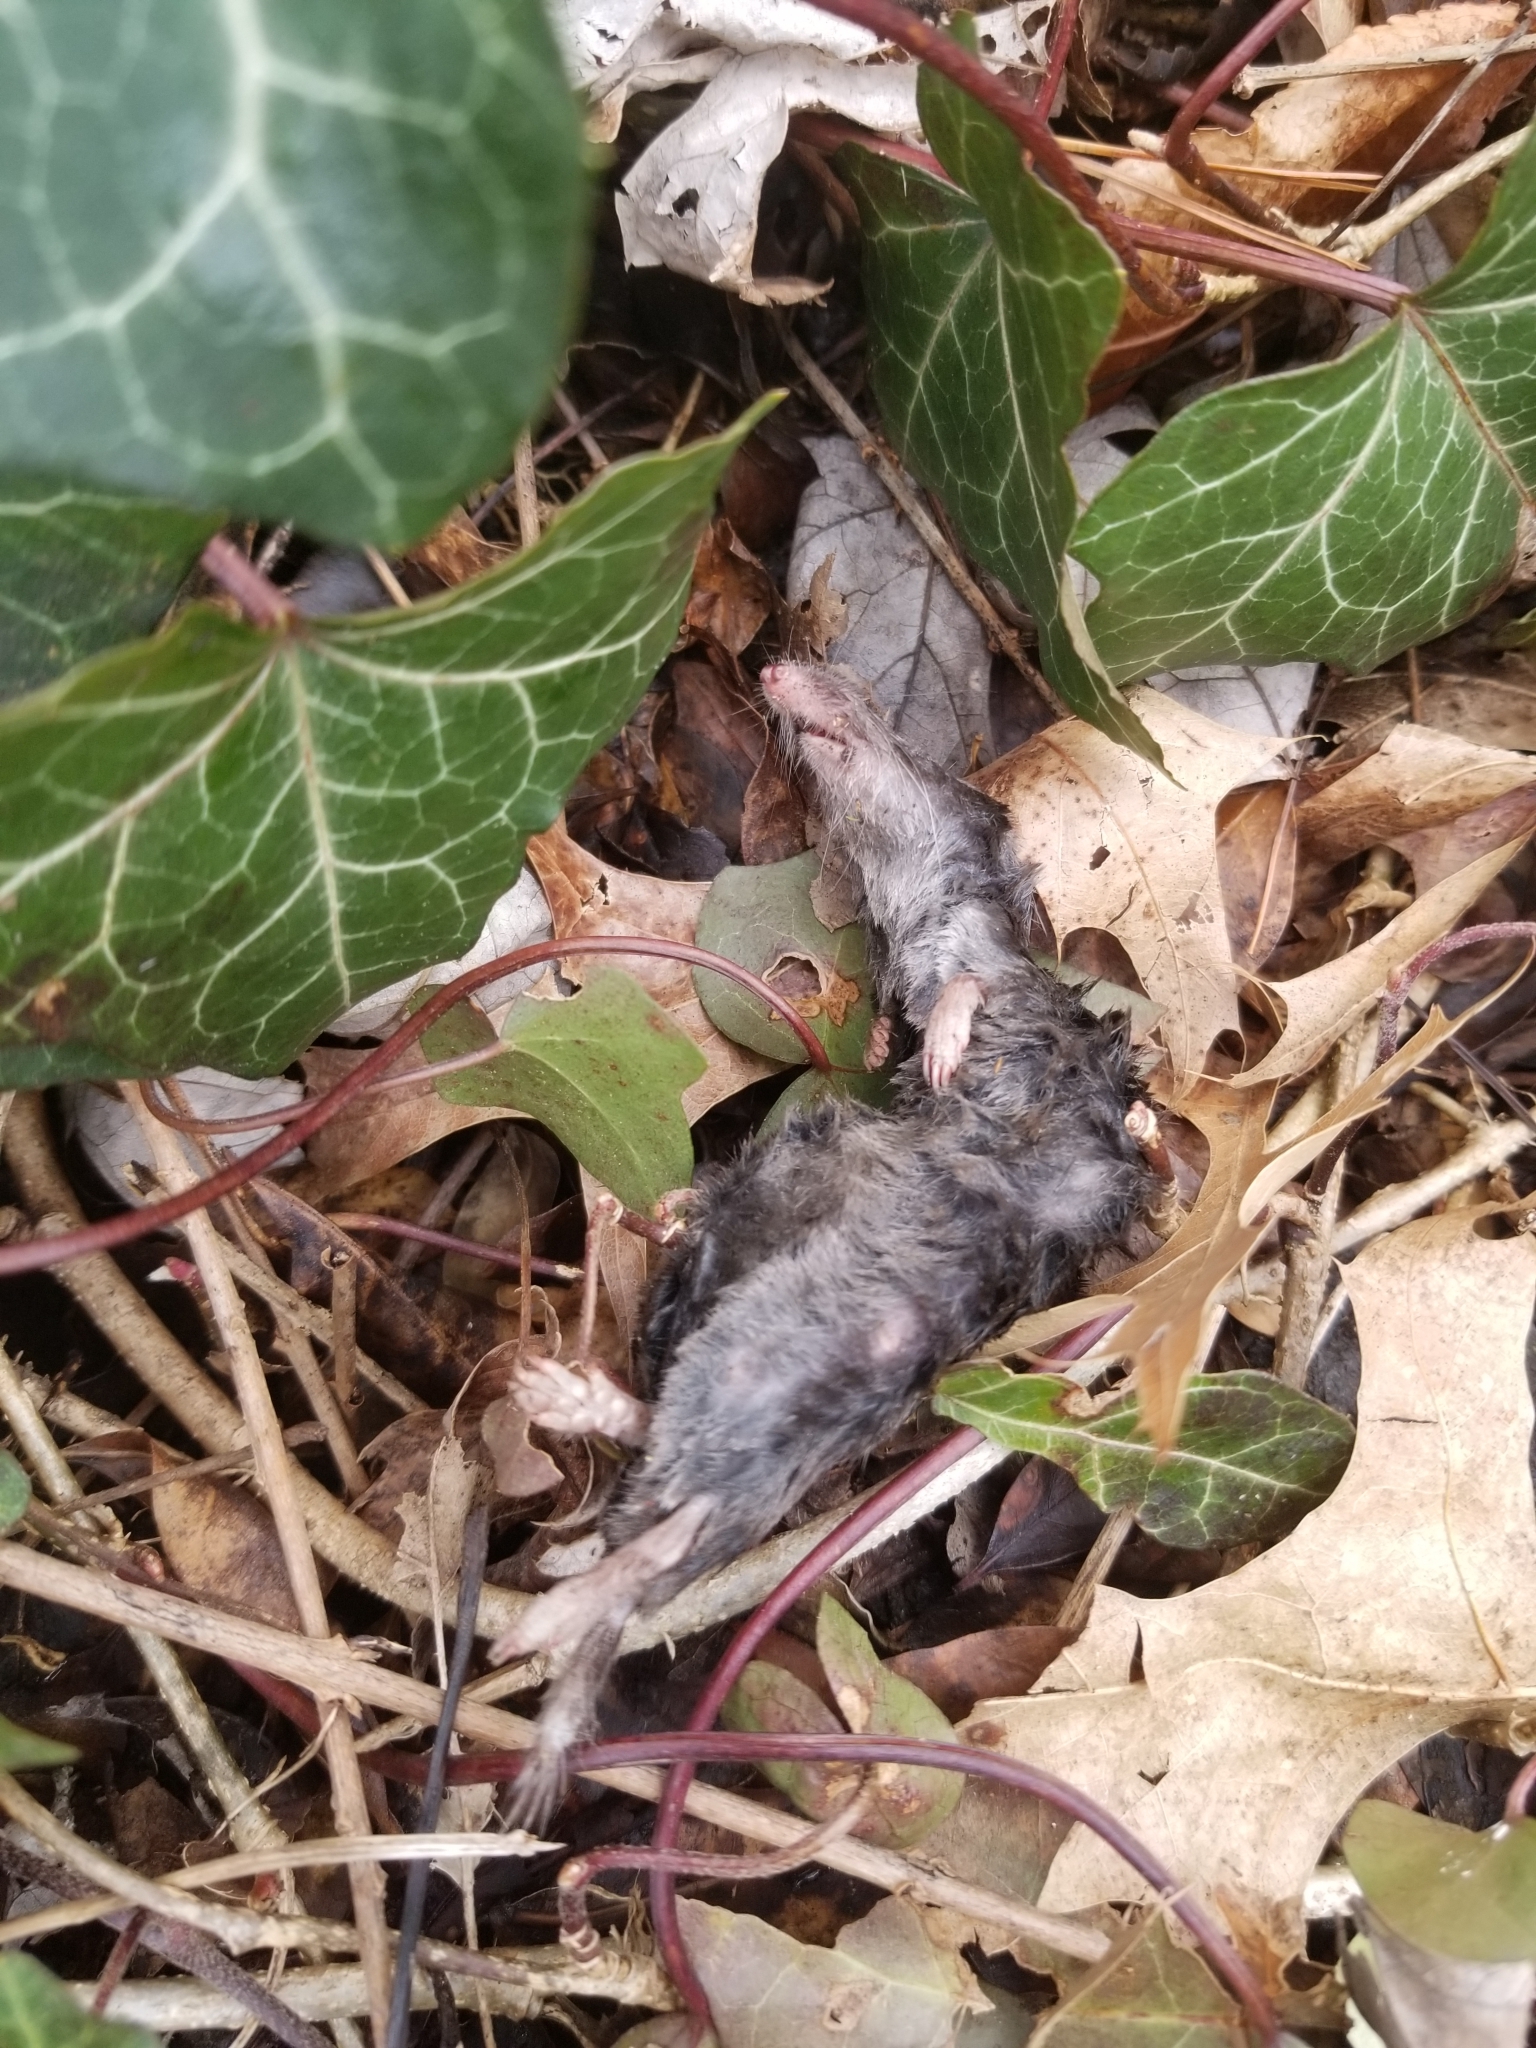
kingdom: Animalia
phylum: Chordata
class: Mammalia
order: Soricomorpha
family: Soricidae
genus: Blarina
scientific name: Blarina brevicauda
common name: Northern short-tailed shrew
